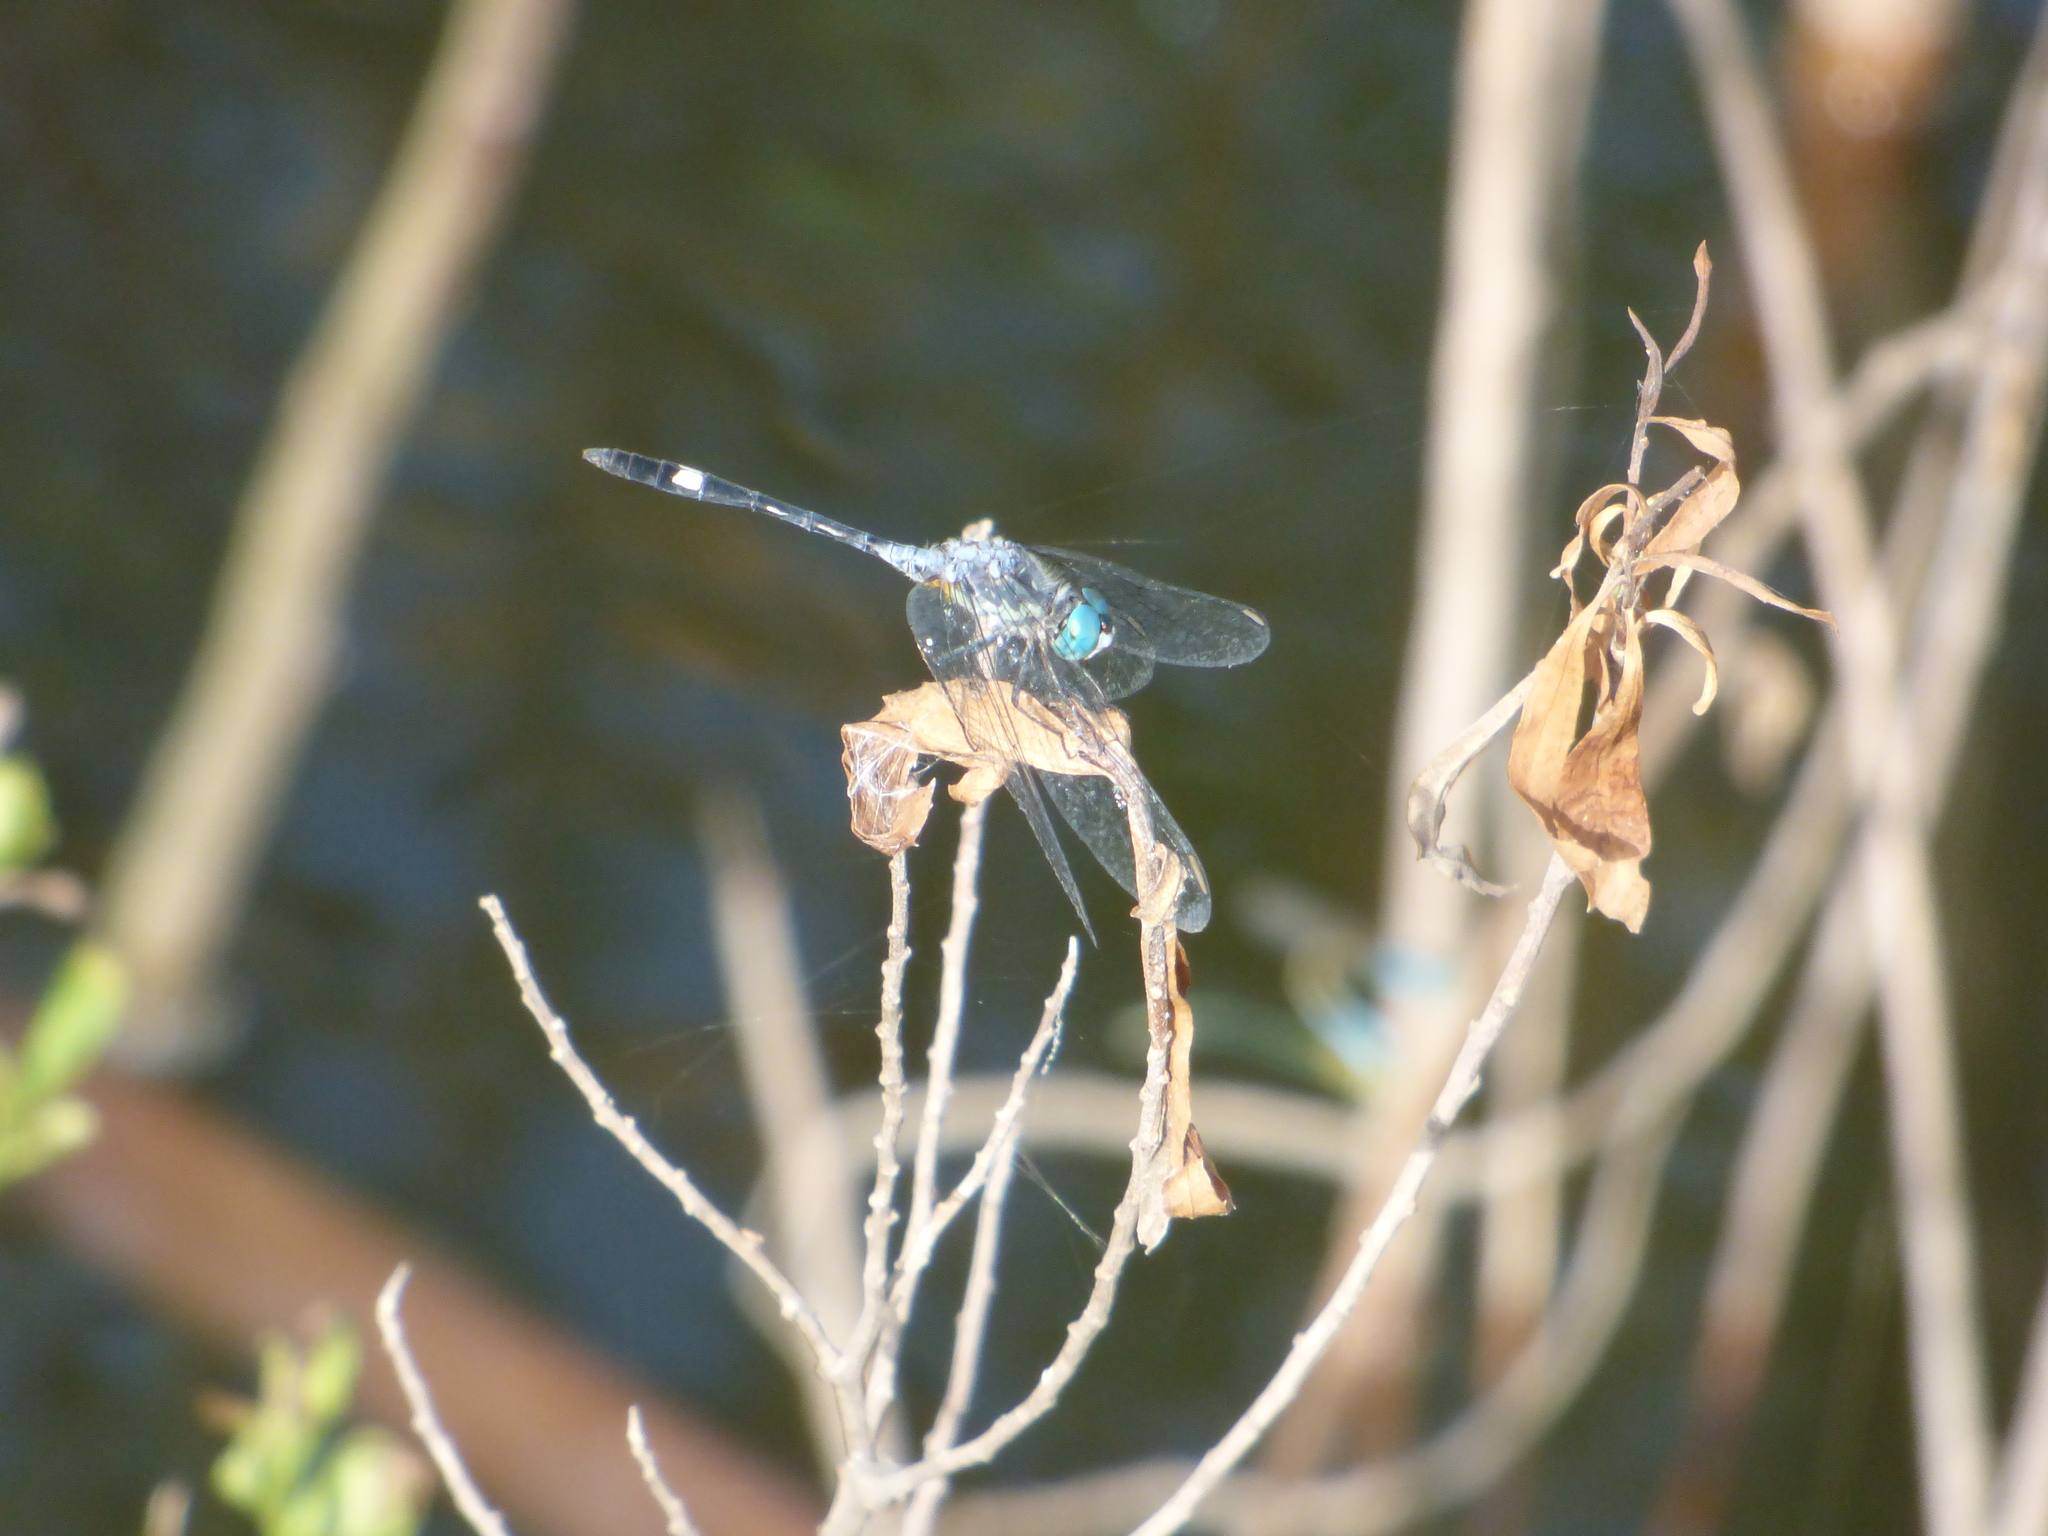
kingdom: Animalia
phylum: Arthropoda
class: Insecta
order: Odonata
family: Libellulidae
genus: Micrathyria
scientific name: Micrathyria longifasciata
